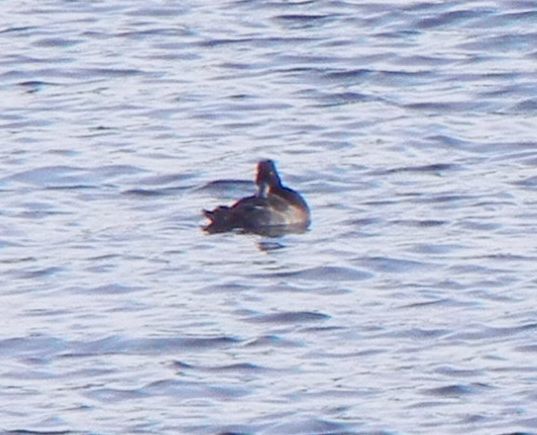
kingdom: Animalia
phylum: Chordata
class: Aves
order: Anseriformes
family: Anatidae
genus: Aythya
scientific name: Aythya fuligula
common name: Tufted duck
